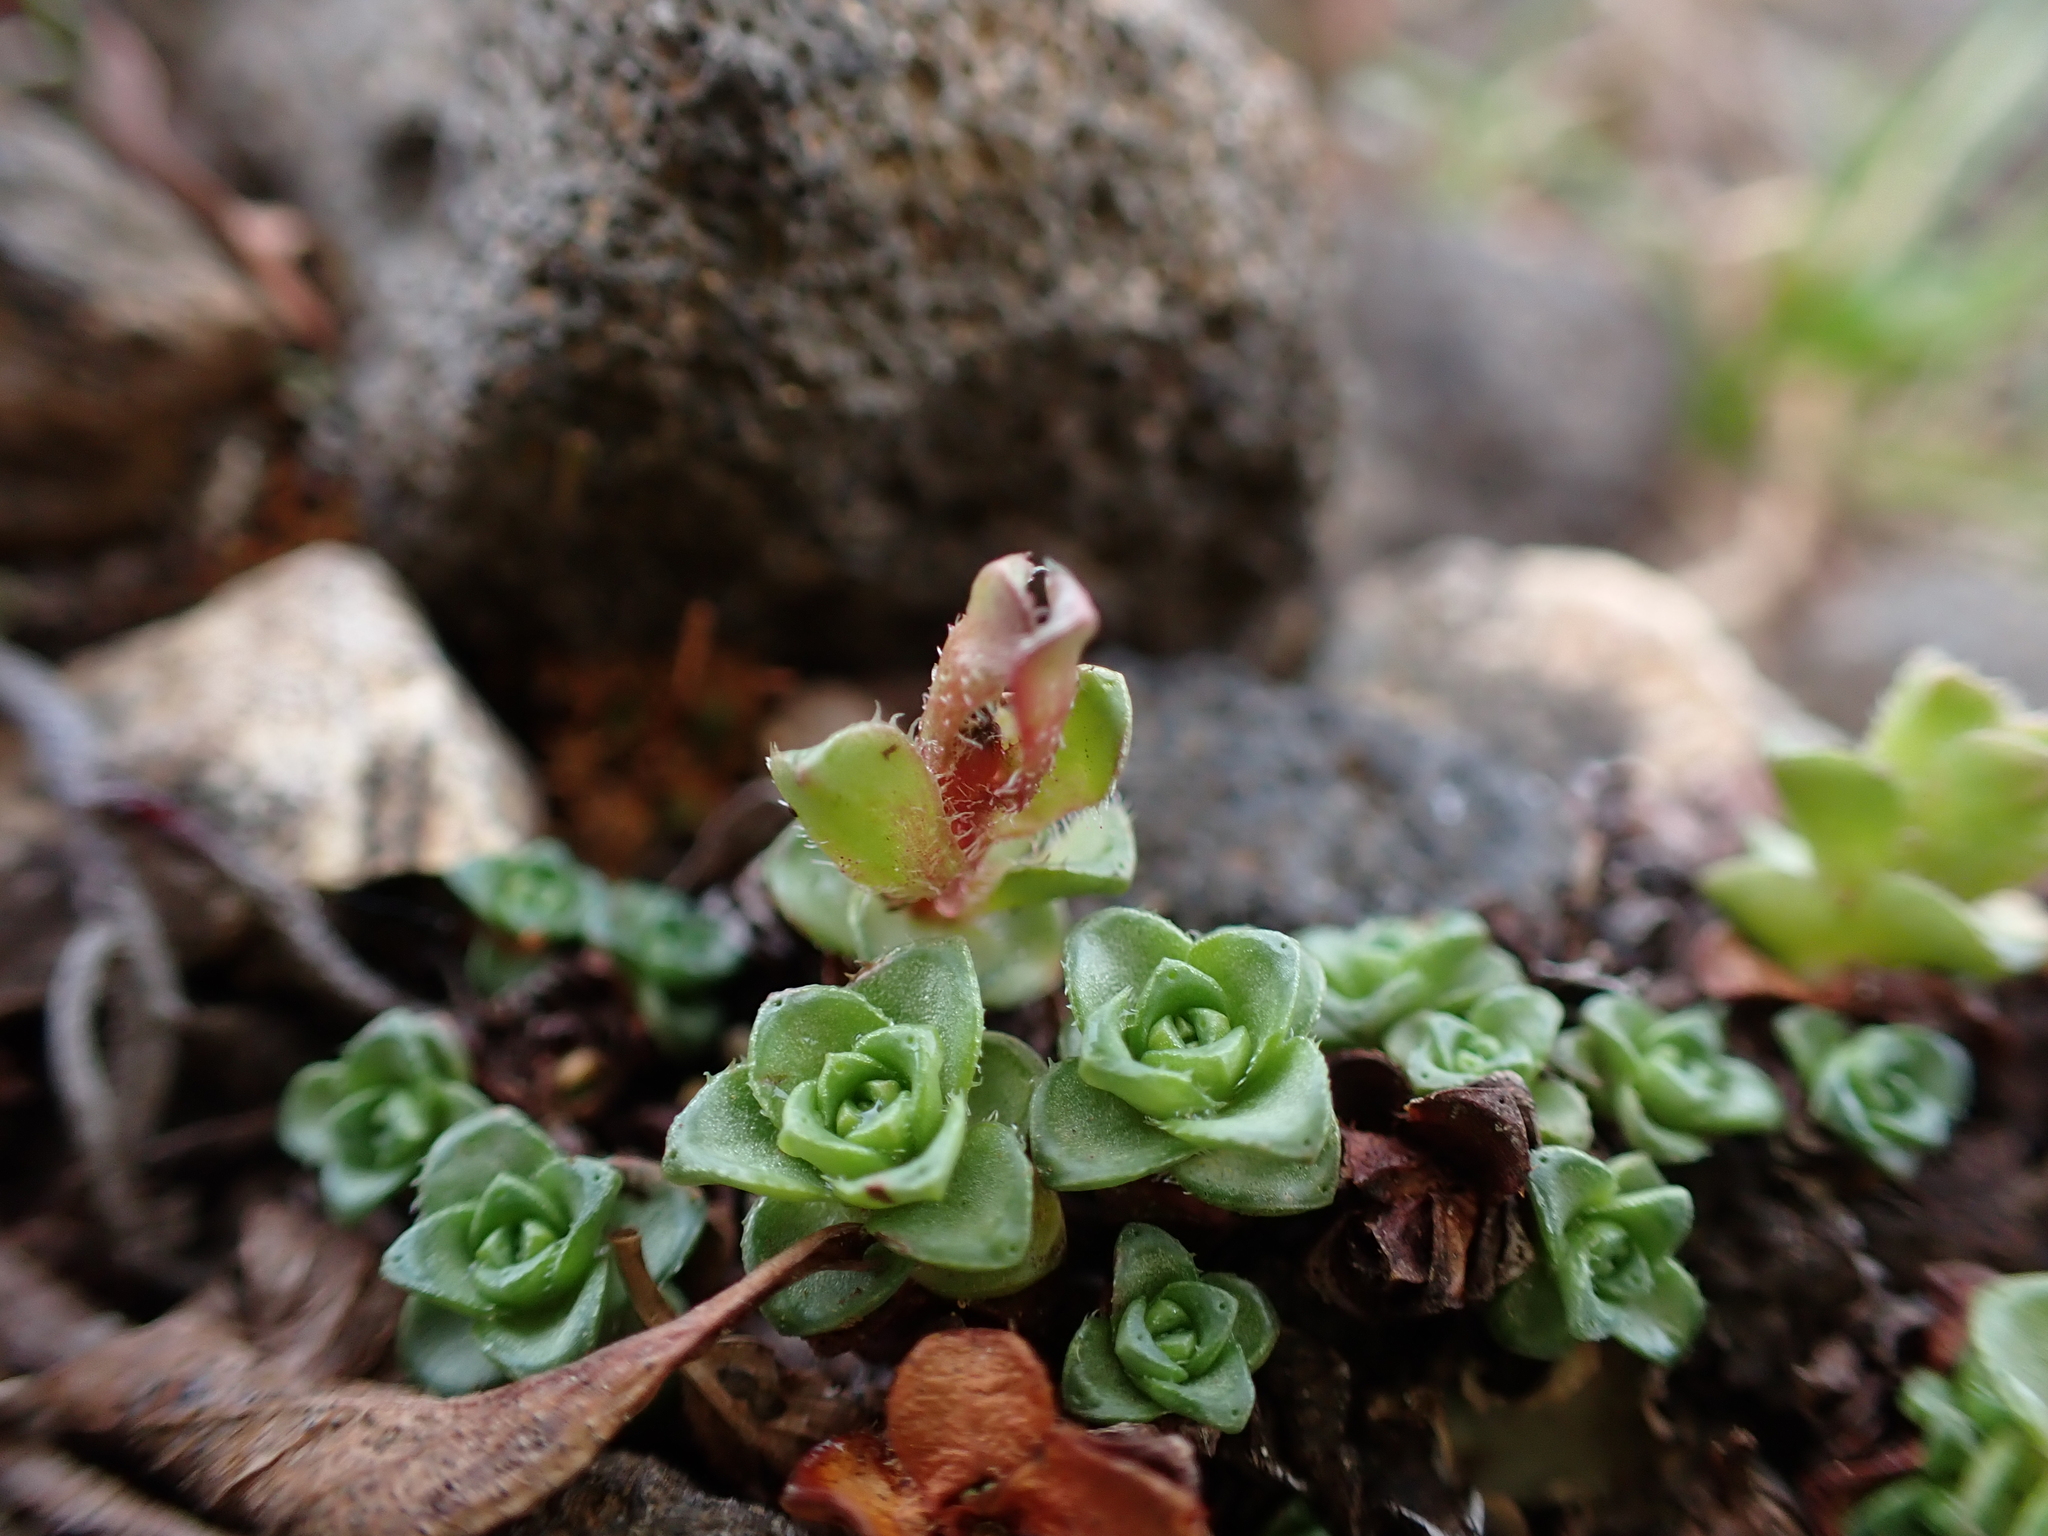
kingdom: Plantae
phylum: Tracheophyta
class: Magnoliopsida
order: Saxifragales
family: Saxifragaceae
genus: Saxifraga
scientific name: Saxifraga oppositifolia
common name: Purple saxifrage
